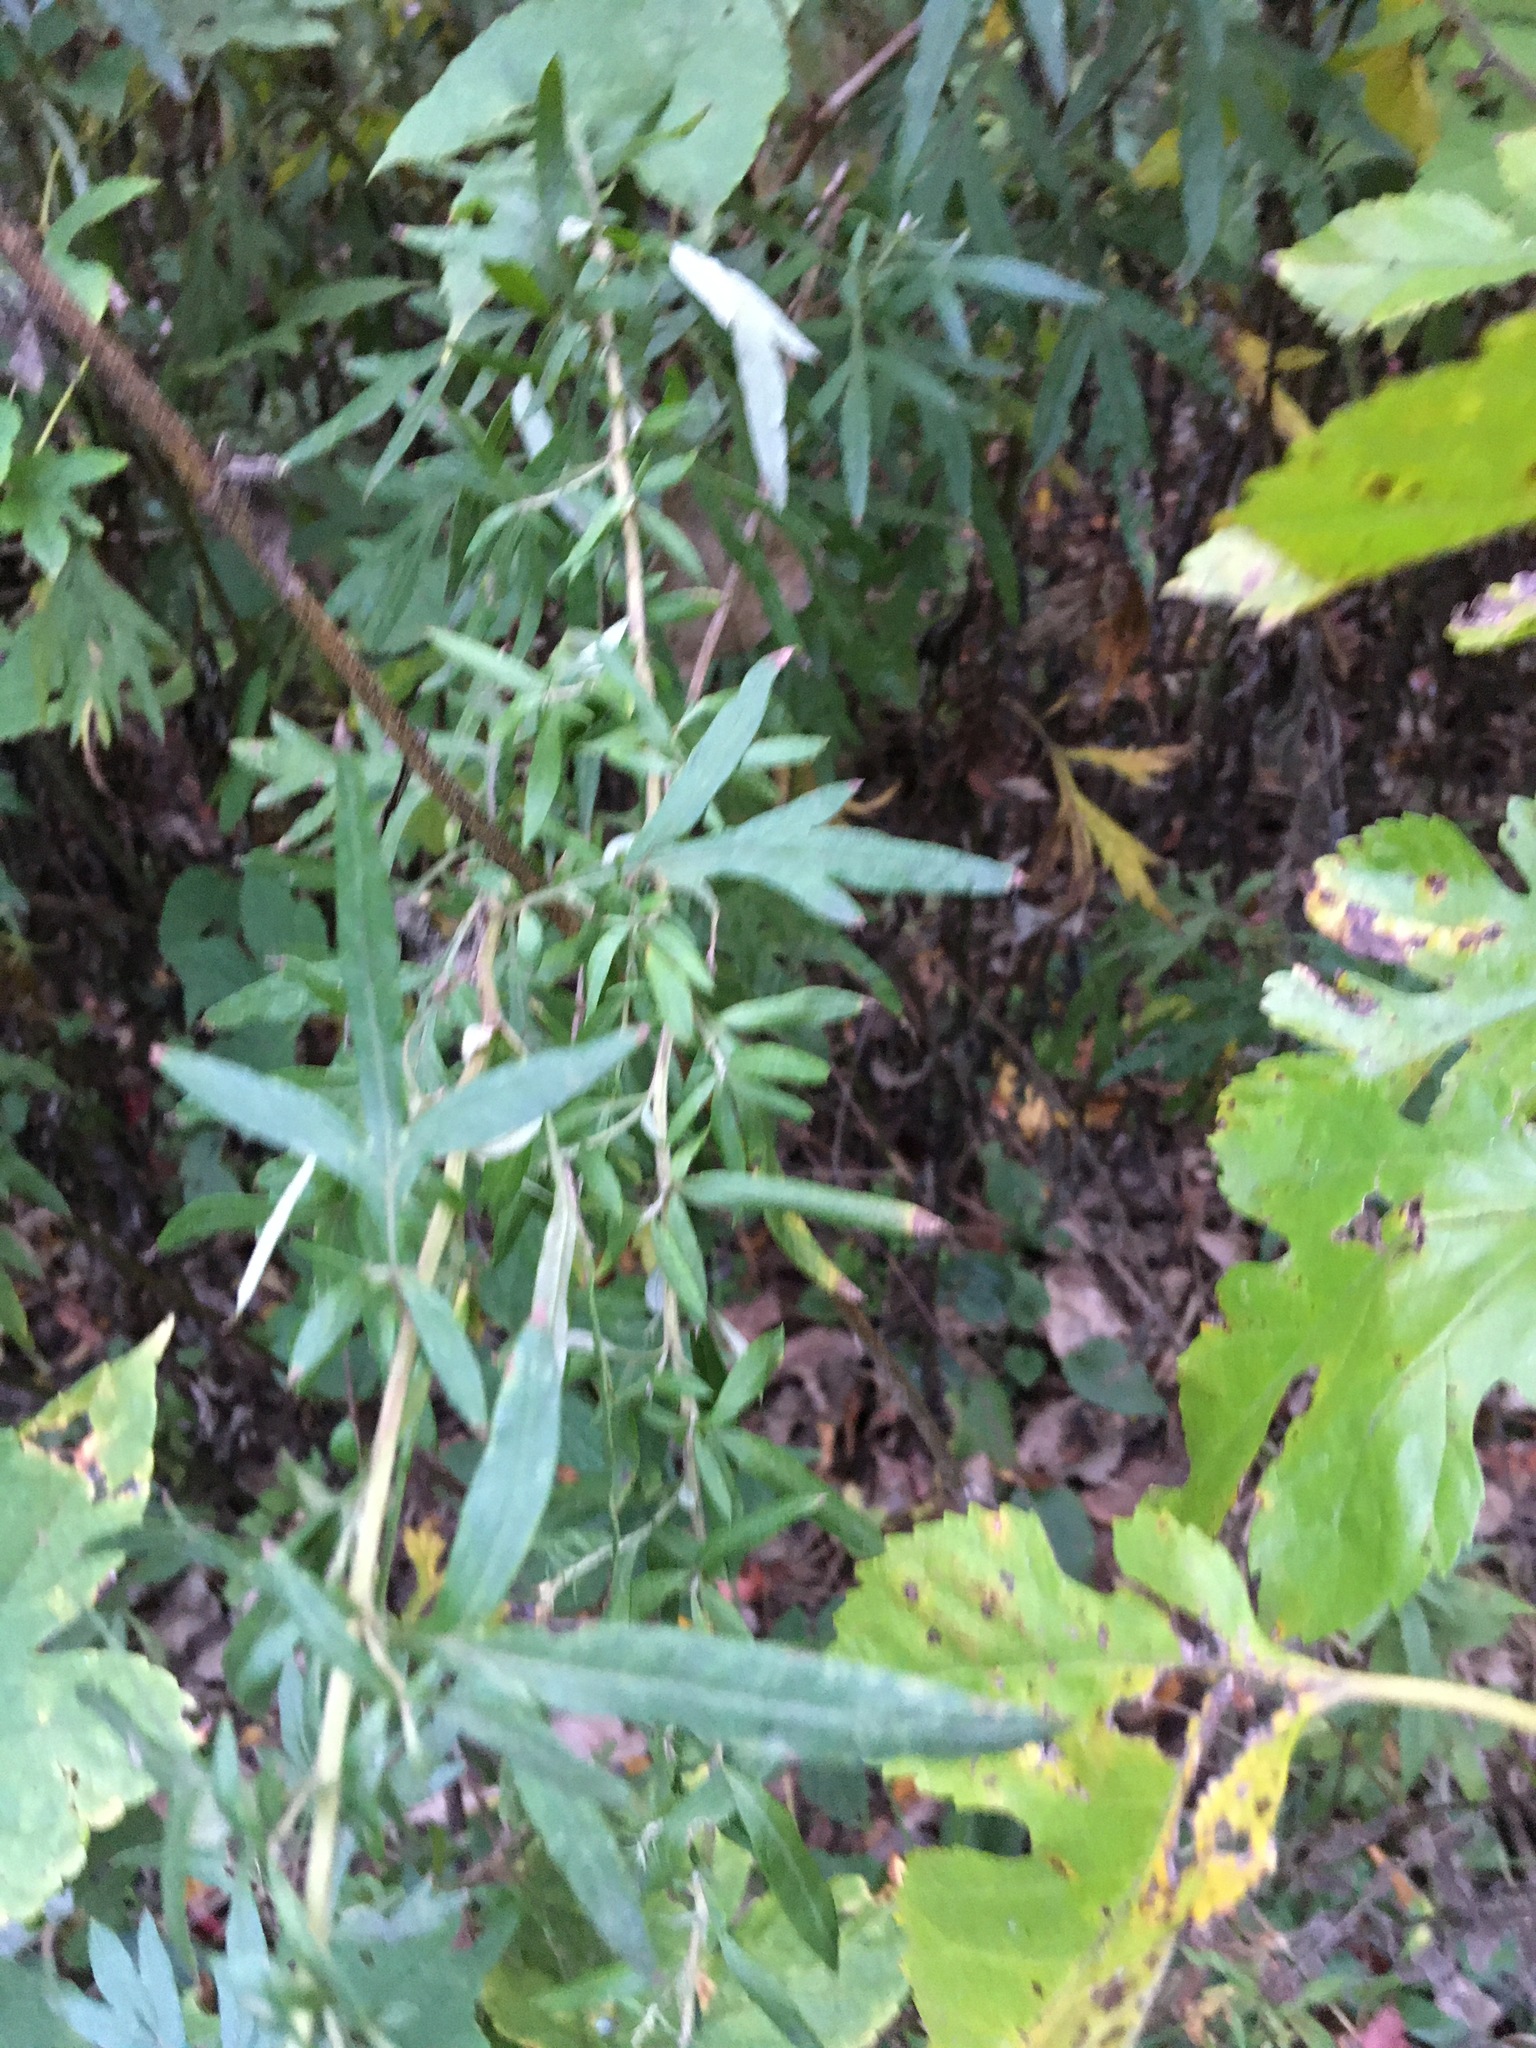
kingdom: Plantae
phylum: Tracheophyta
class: Magnoliopsida
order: Asterales
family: Asteraceae
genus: Artemisia
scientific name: Artemisia vulgaris
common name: Mugwort
